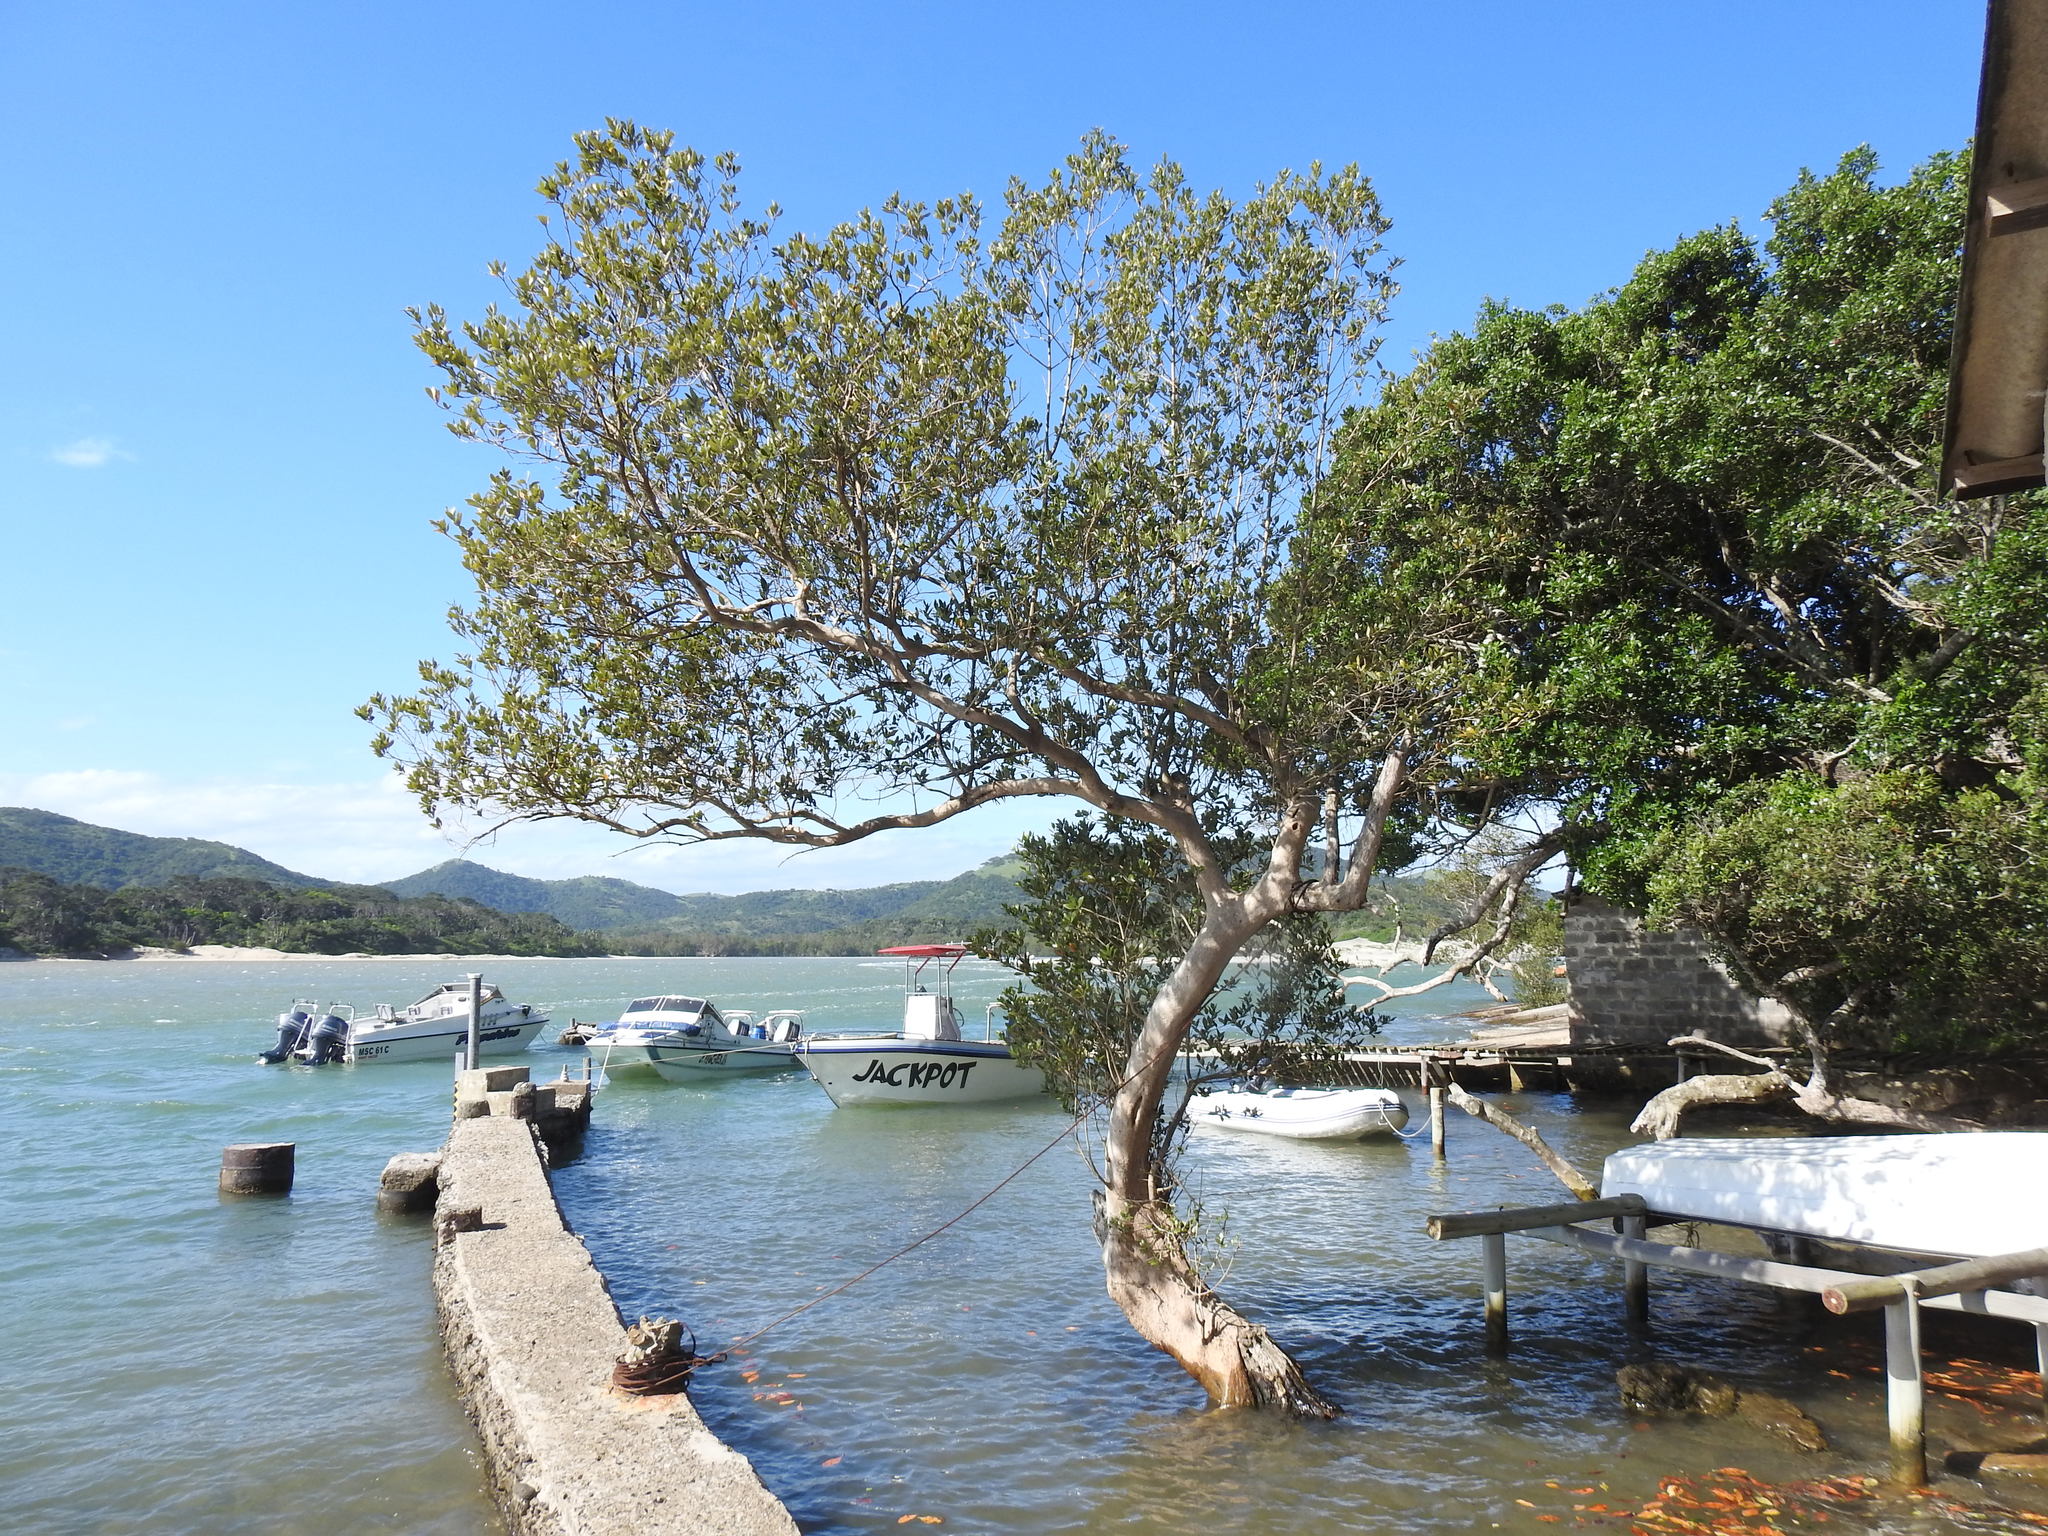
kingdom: Plantae
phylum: Tracheophyta
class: Magnoliopsida
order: Lamiales
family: Acanthaceae
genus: Avicennia
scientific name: Avicennia marina
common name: Gray mangrove
